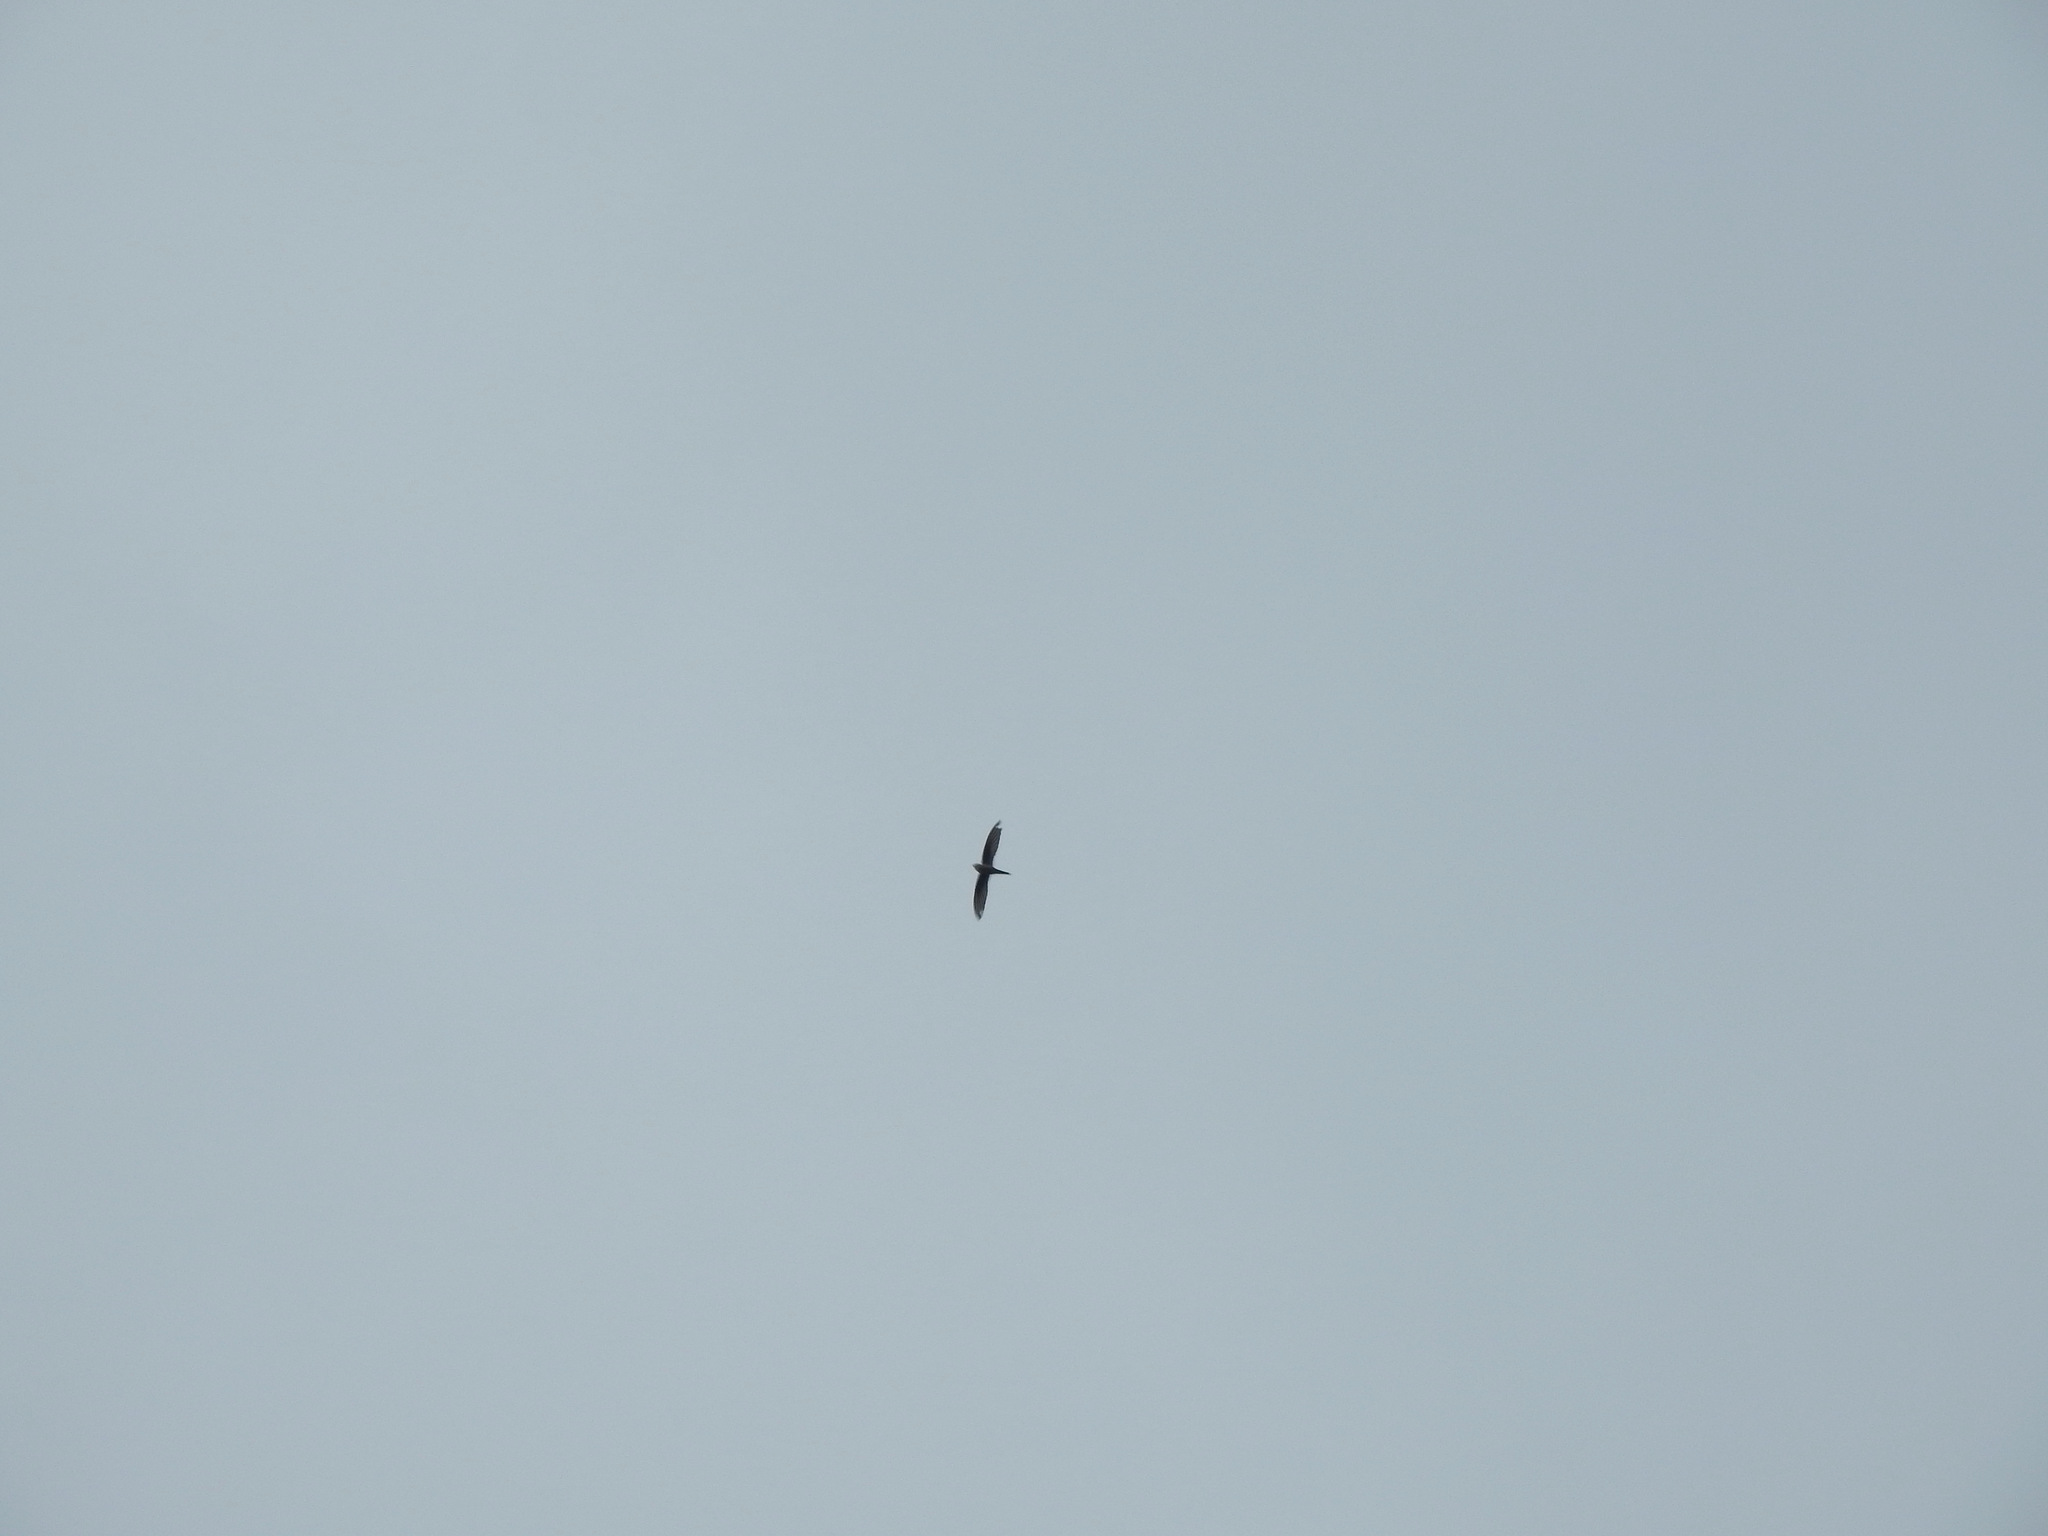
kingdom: Animalia
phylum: Chordata
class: Aves
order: Apodiformes
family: Apodidae
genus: Cypsiurus
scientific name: Cypsiurus balasiensis
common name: Asian palm swift
